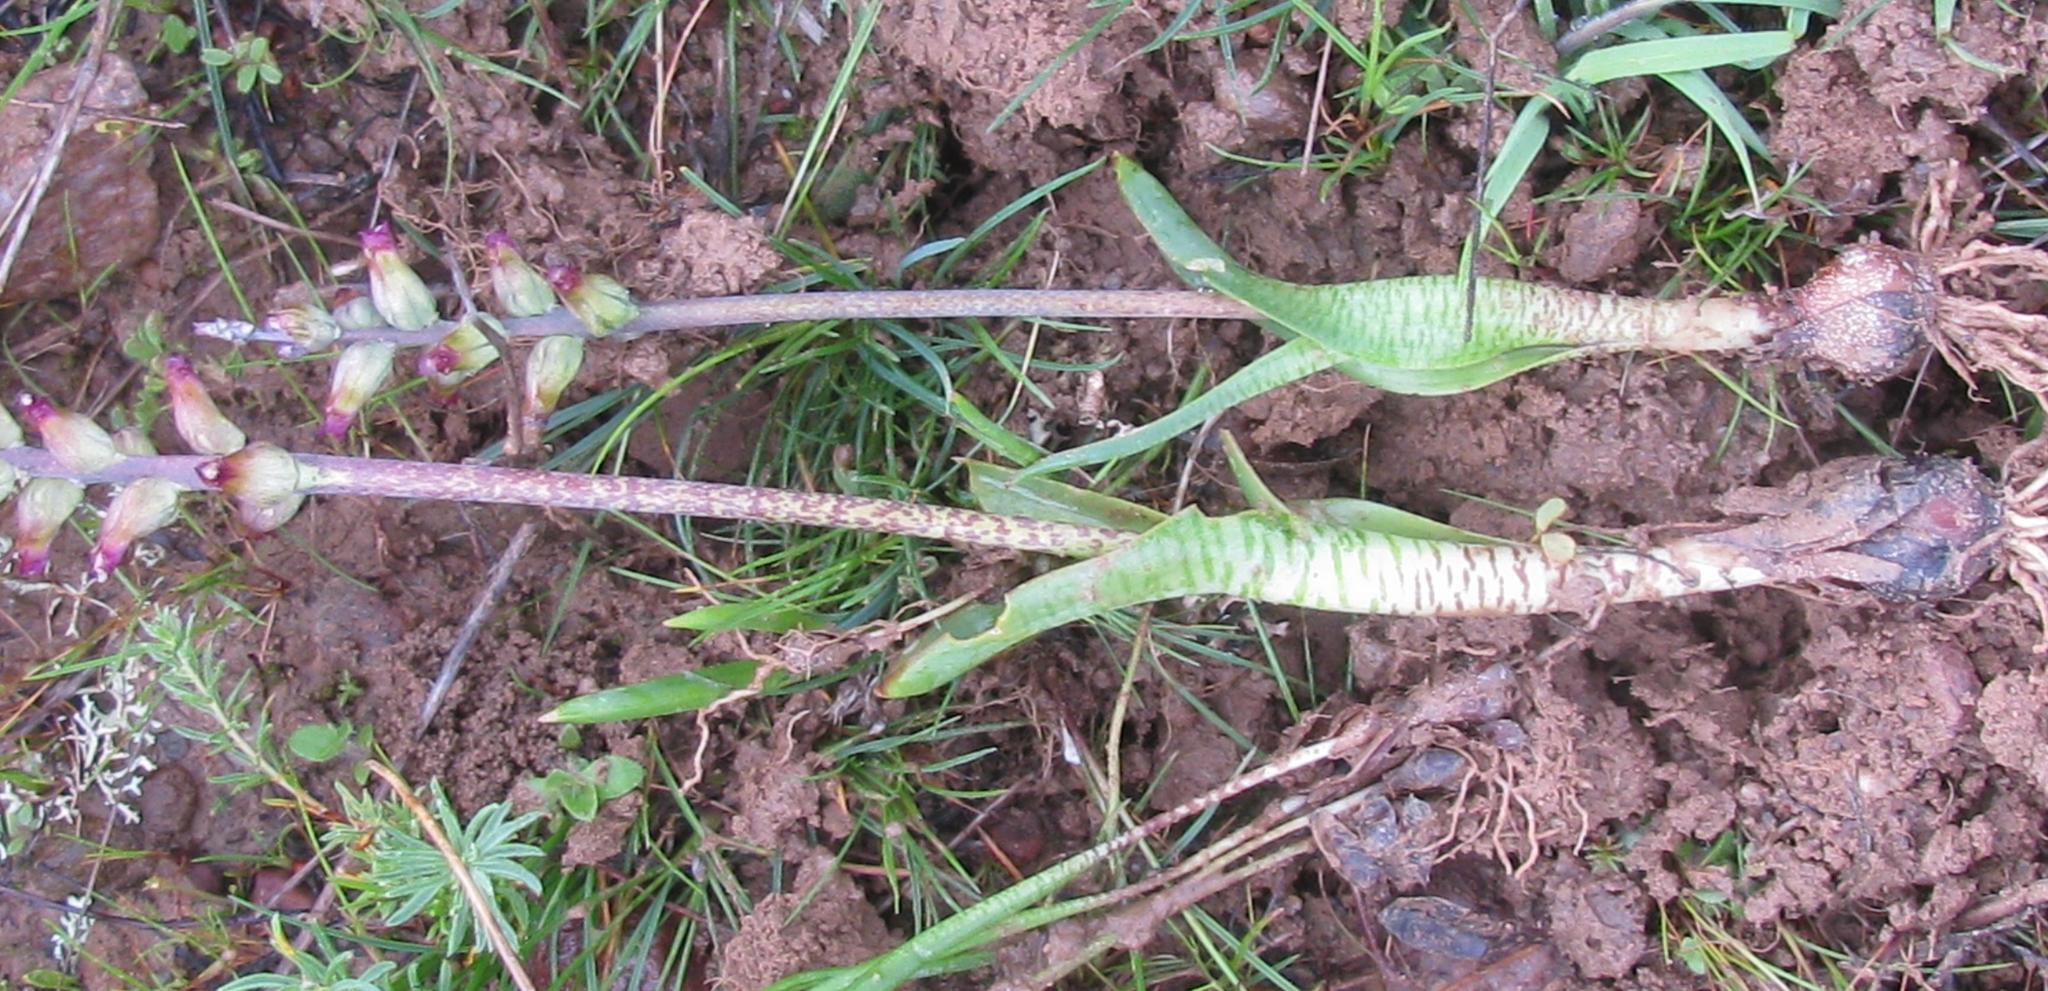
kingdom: Plantae
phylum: Tracheophyta
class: Liliopsida
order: Asparagales
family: Asparagaceae
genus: Lachenalia
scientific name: Lachenalia obscura
